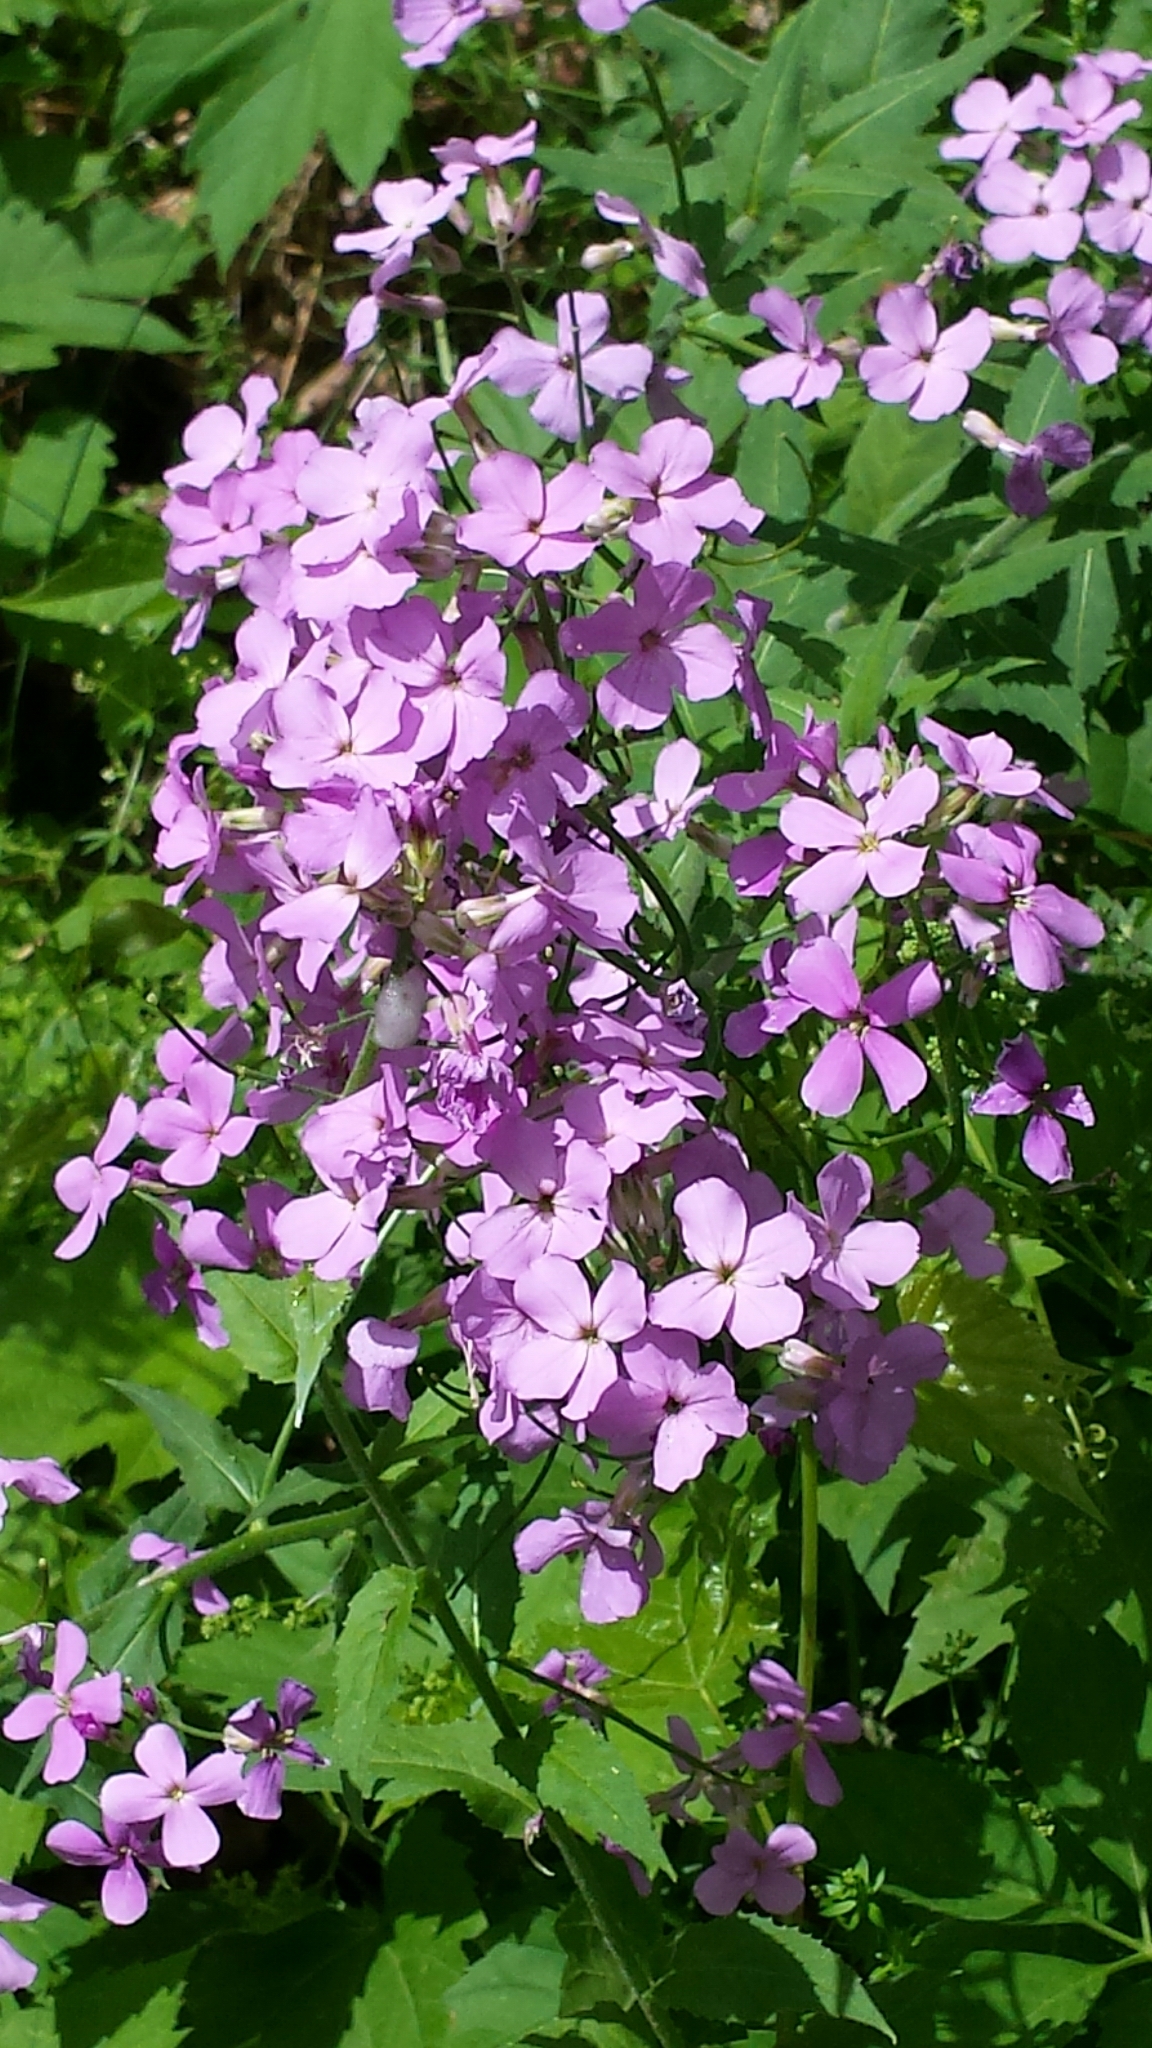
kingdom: Plantae
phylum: Tracheophyta
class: Magnoliopsida
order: Brassicales
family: Brassicaceae
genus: Hesperis
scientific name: Hesperis matronalis
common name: Dame's-violet
